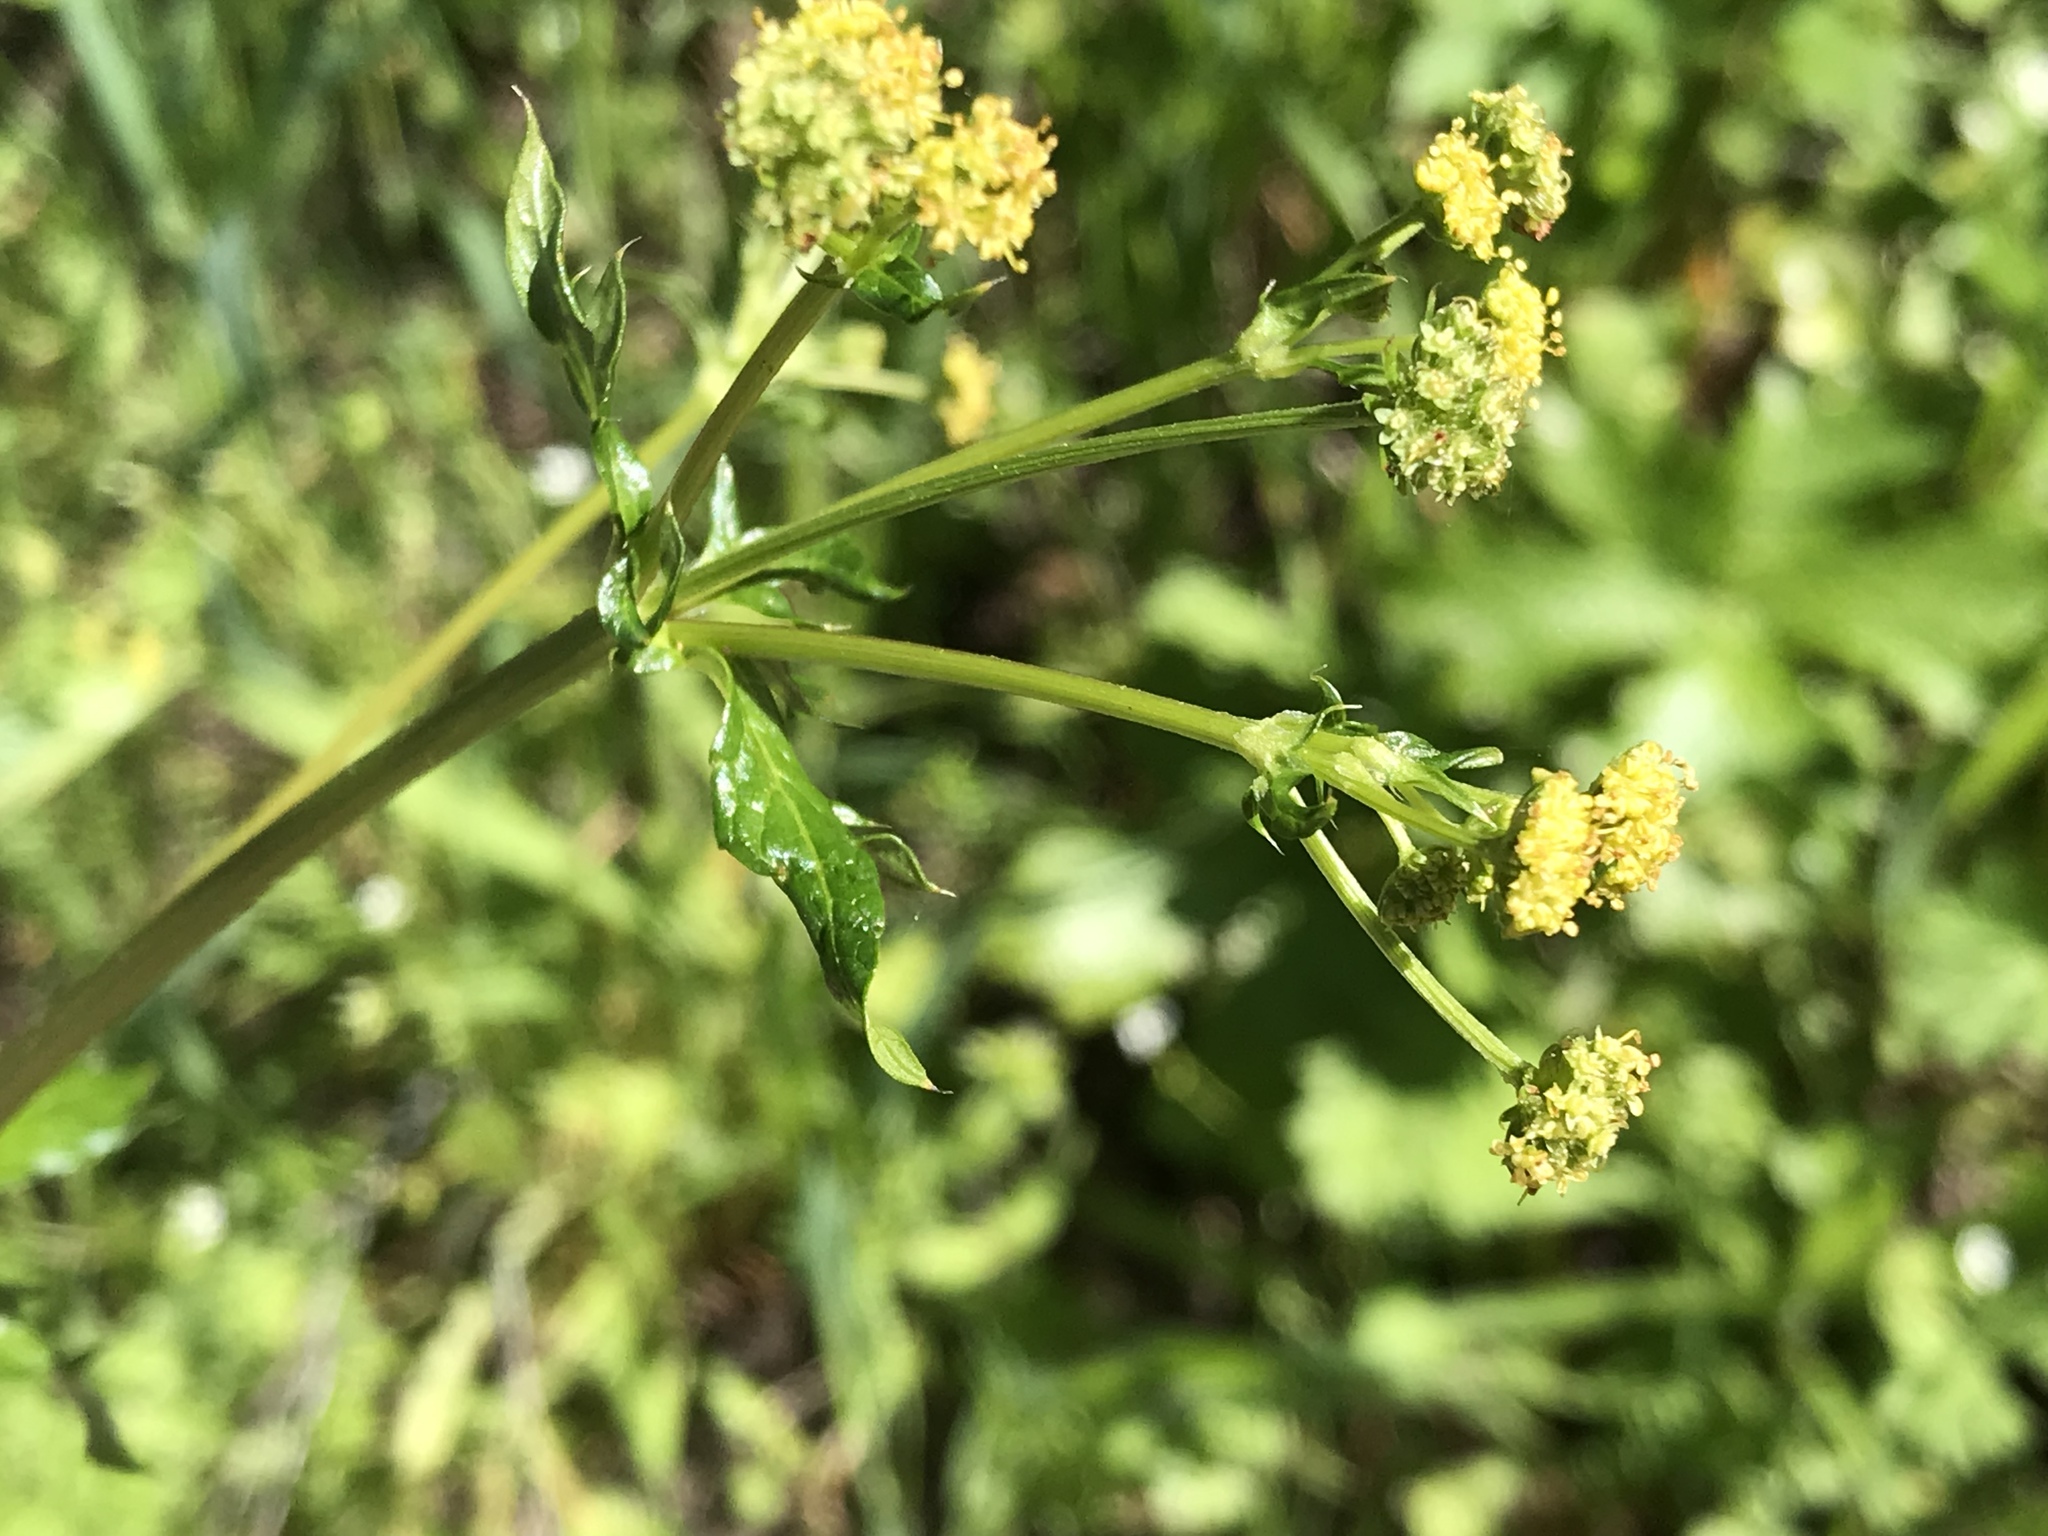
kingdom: Plantae
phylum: Tracheophyta
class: Magnoliopsida
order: Apiales
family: Apiaceae
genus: Sanicula
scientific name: Sanicula crassicaulis
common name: Western snakeroot
